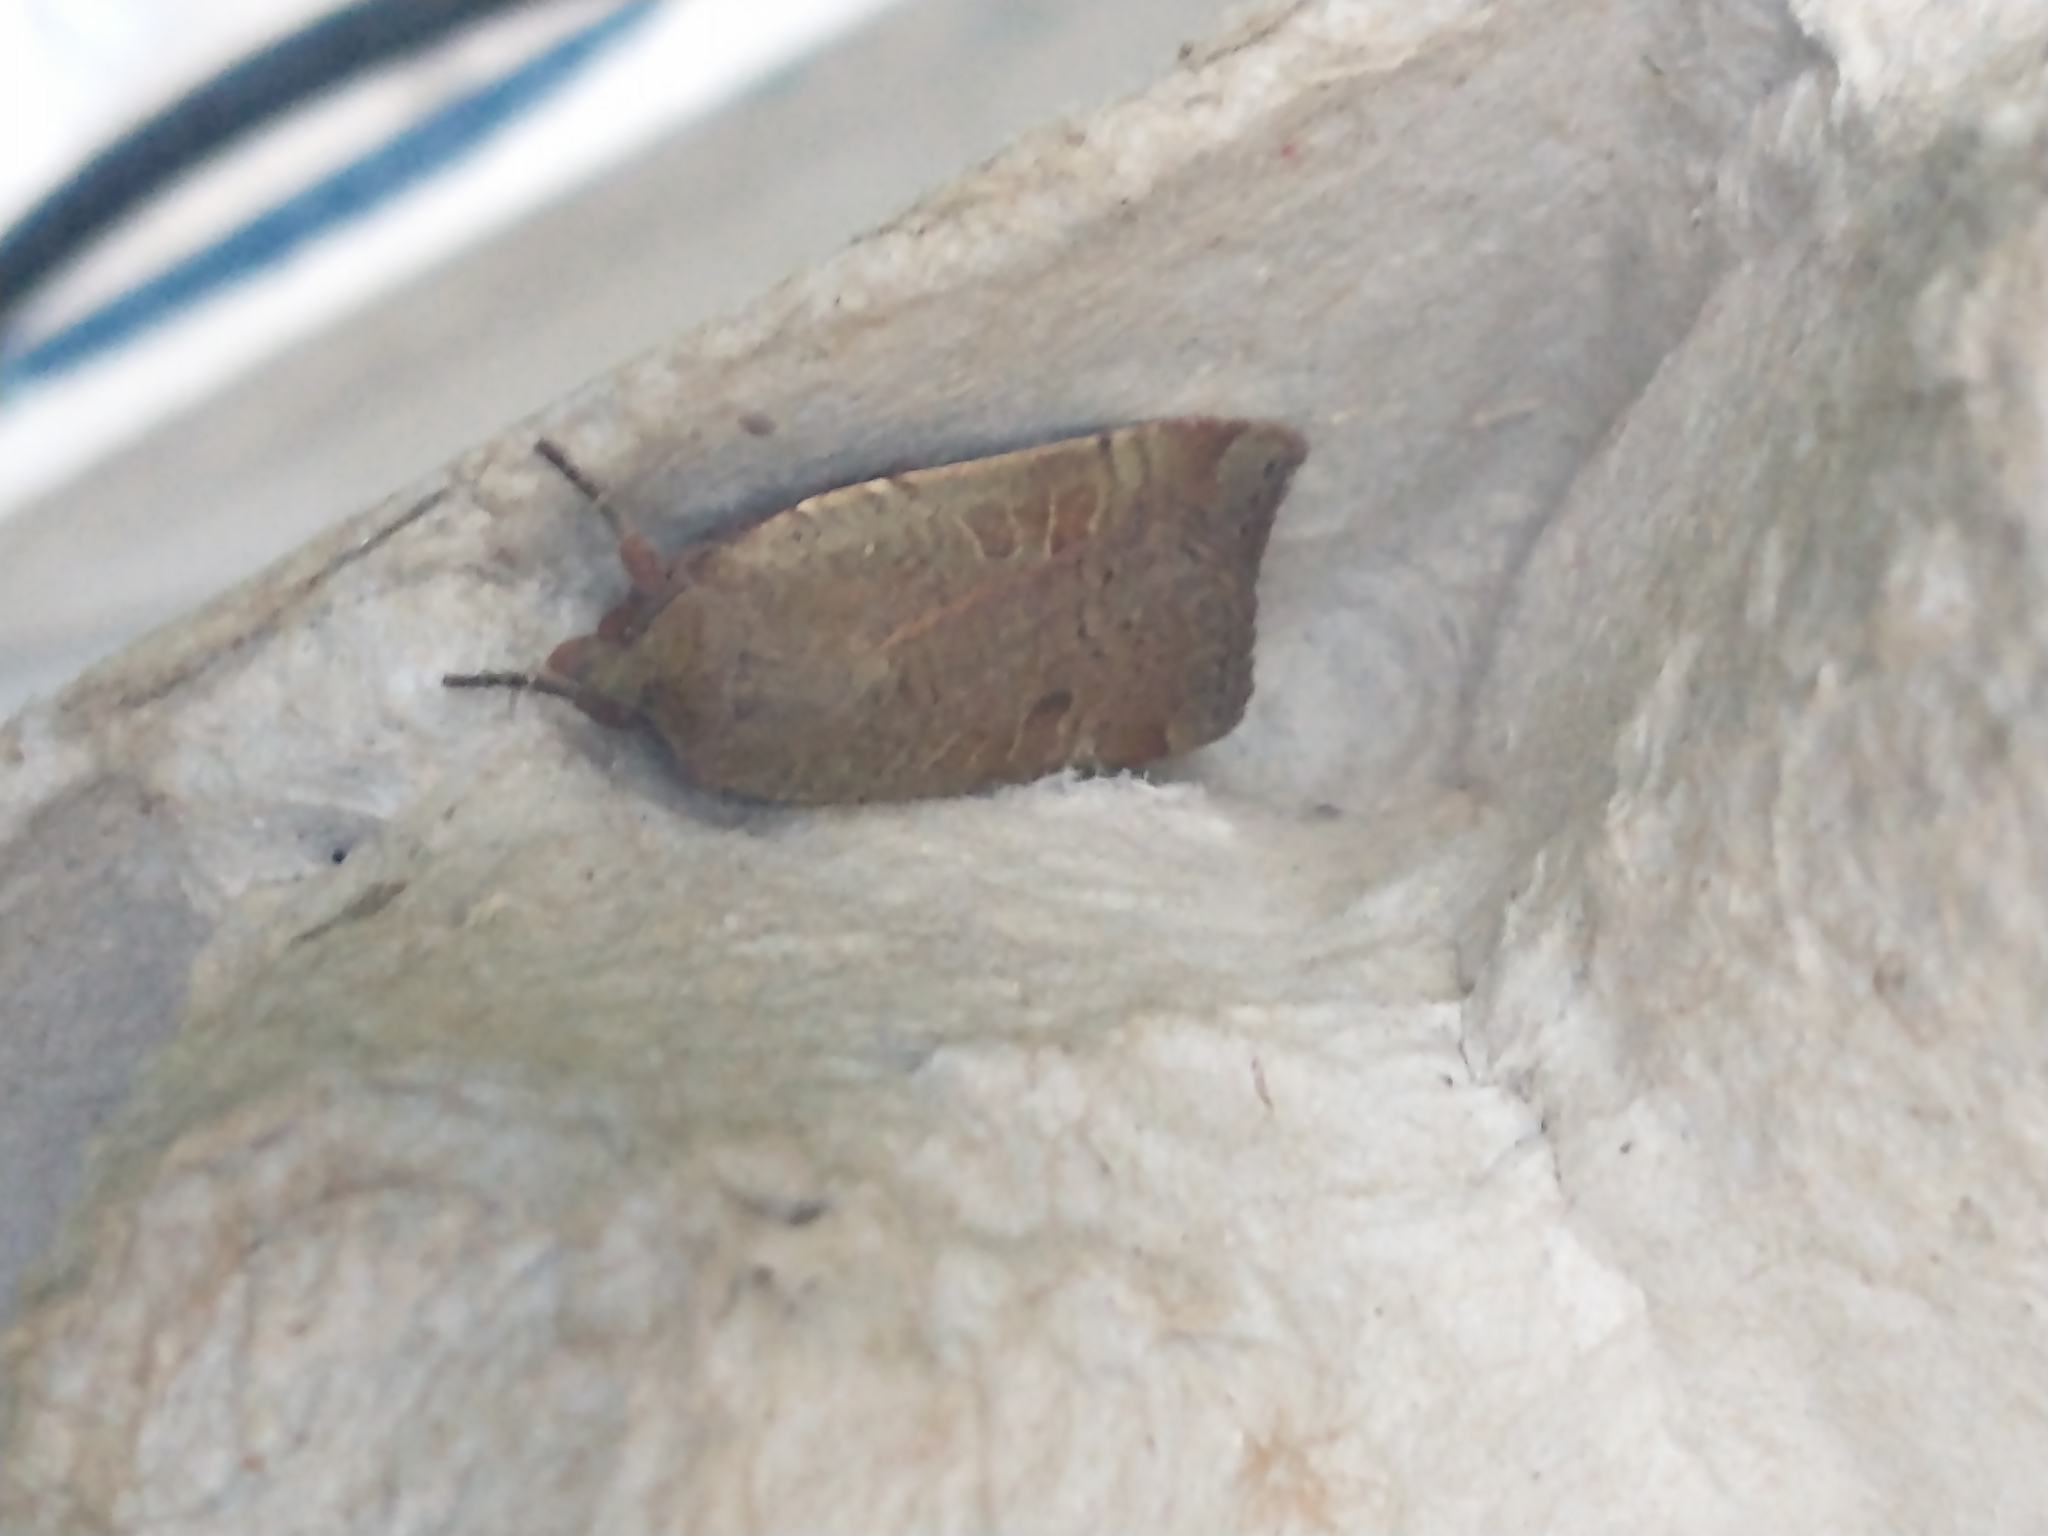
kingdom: Animalia
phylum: Arthropoda
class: Insecta
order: Lepidoptera
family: Noctuidae
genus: Noctua
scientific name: Noctua comes
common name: Lesser yellow underwing
